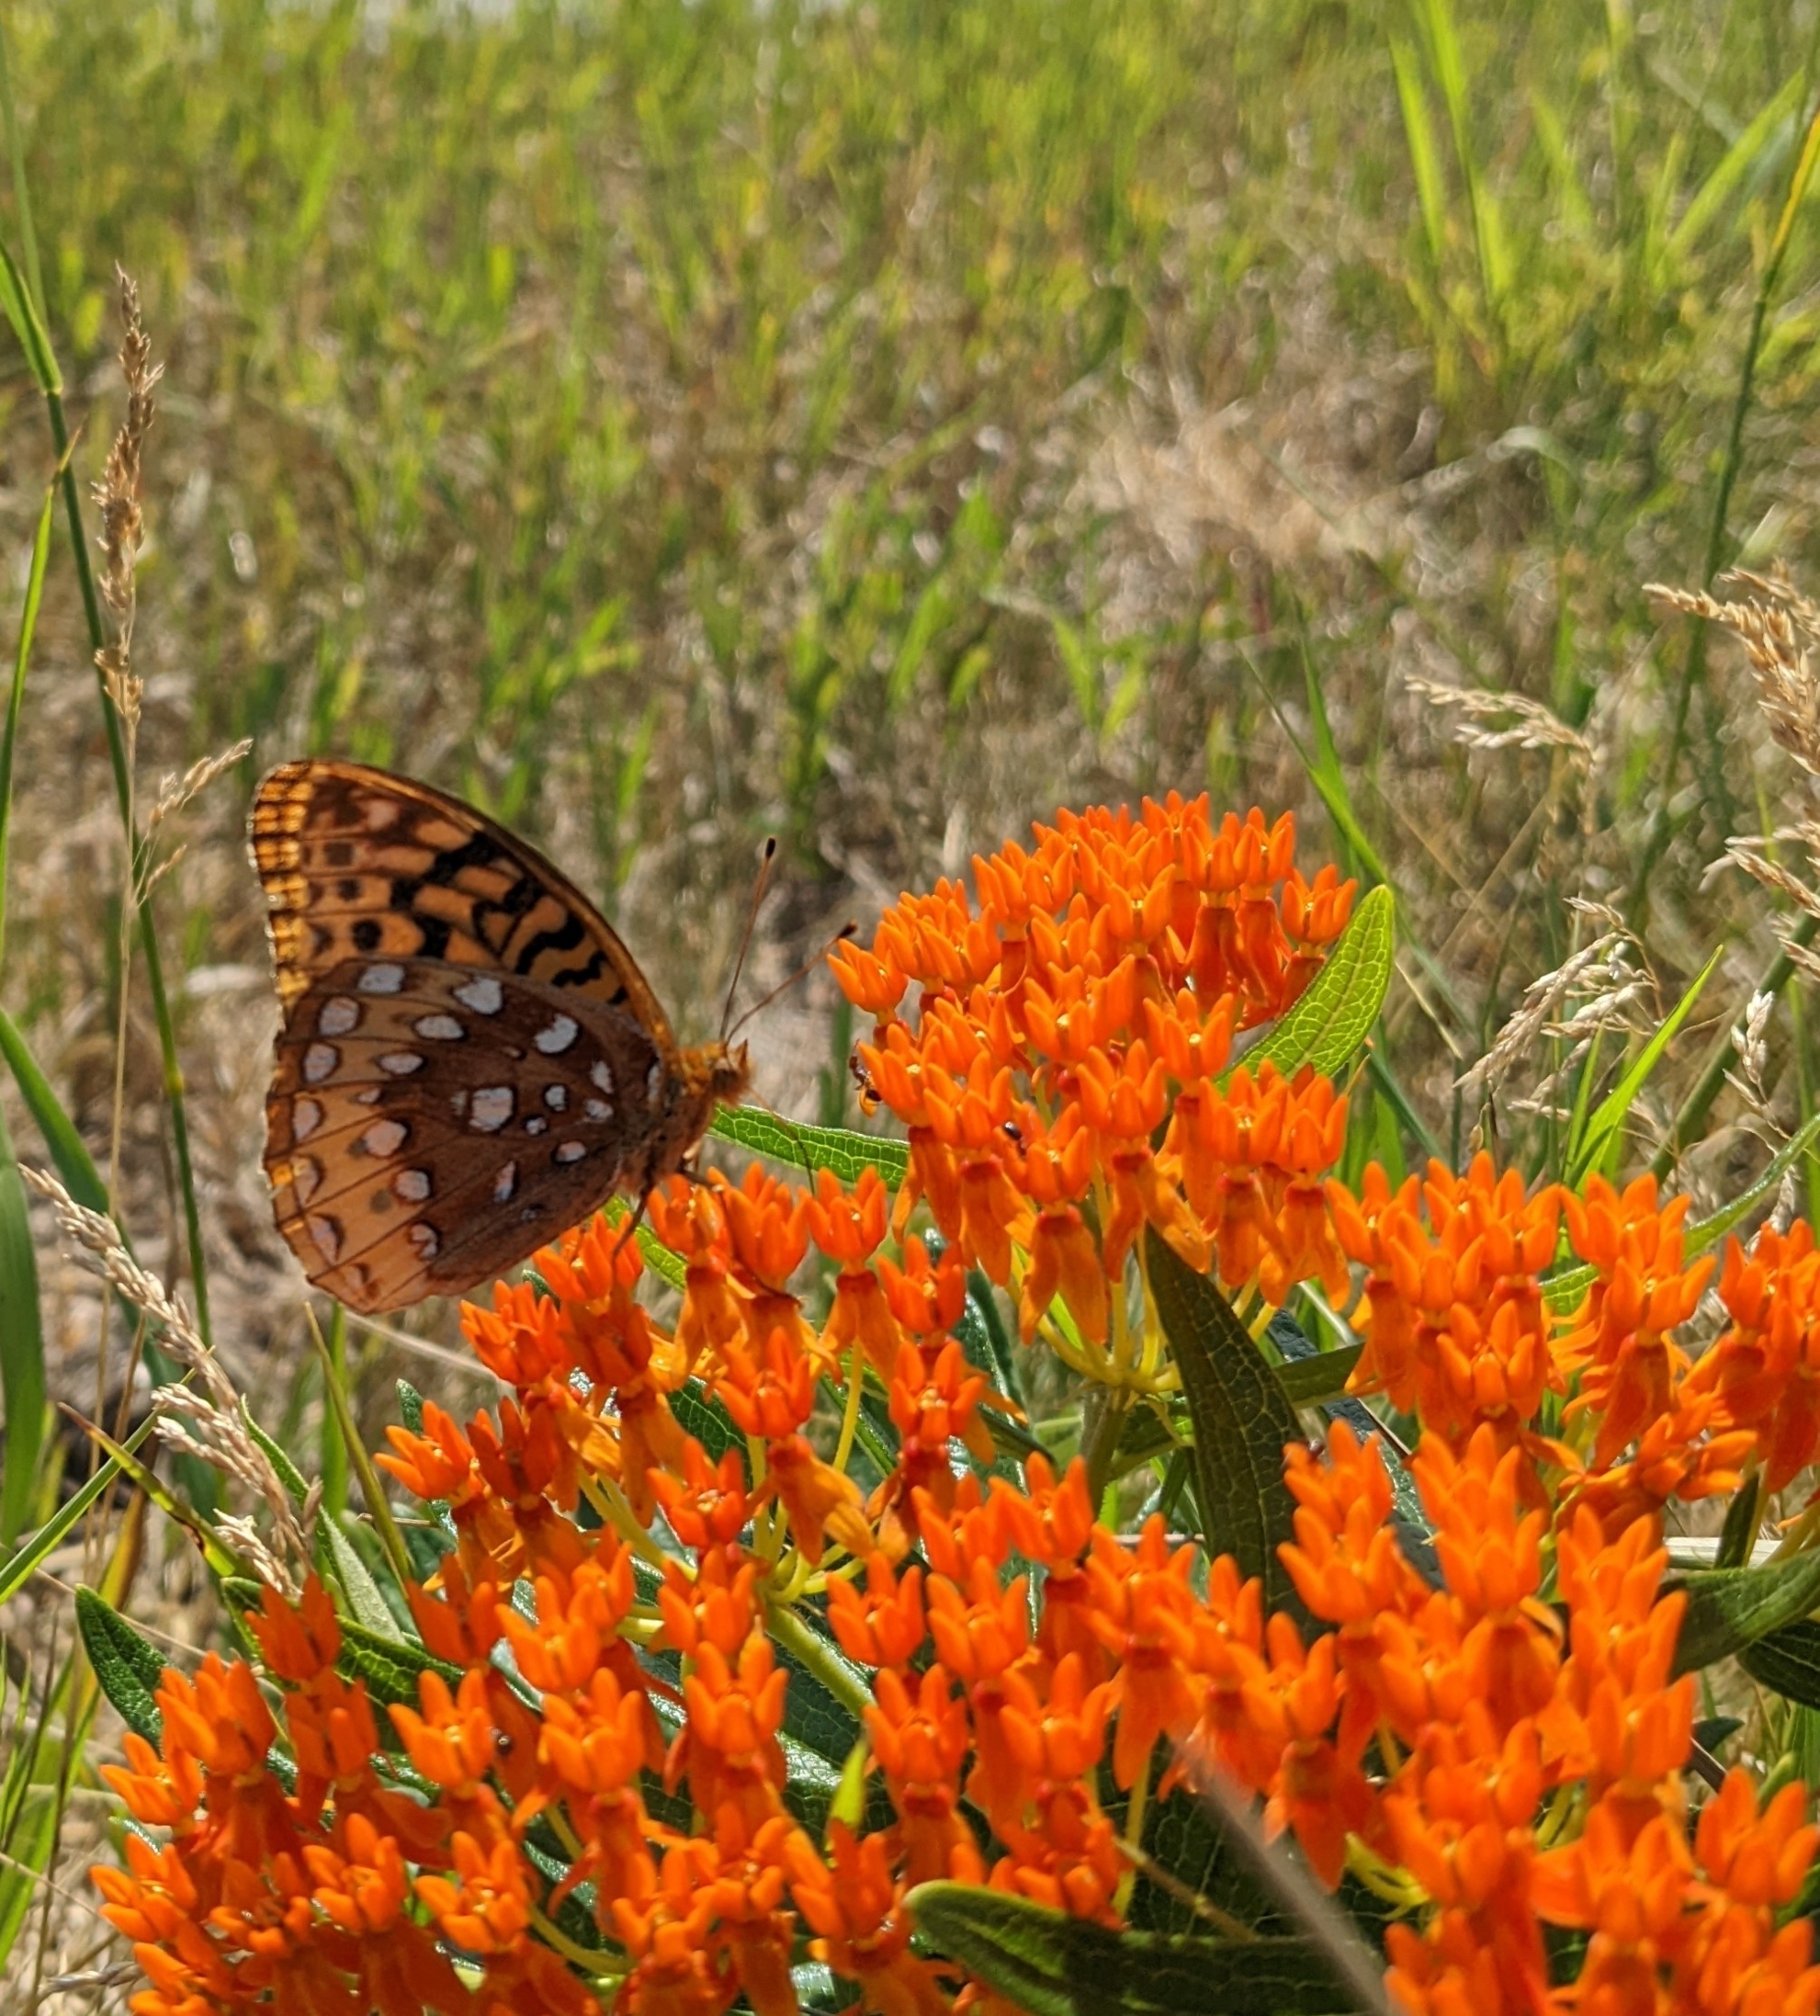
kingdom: Animalia
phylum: Arthropoda
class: Insecta
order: Lepidoptera
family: Nymphalidae
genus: Speyeria
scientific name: Speyeria cybele
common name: Great spangled fritillary
